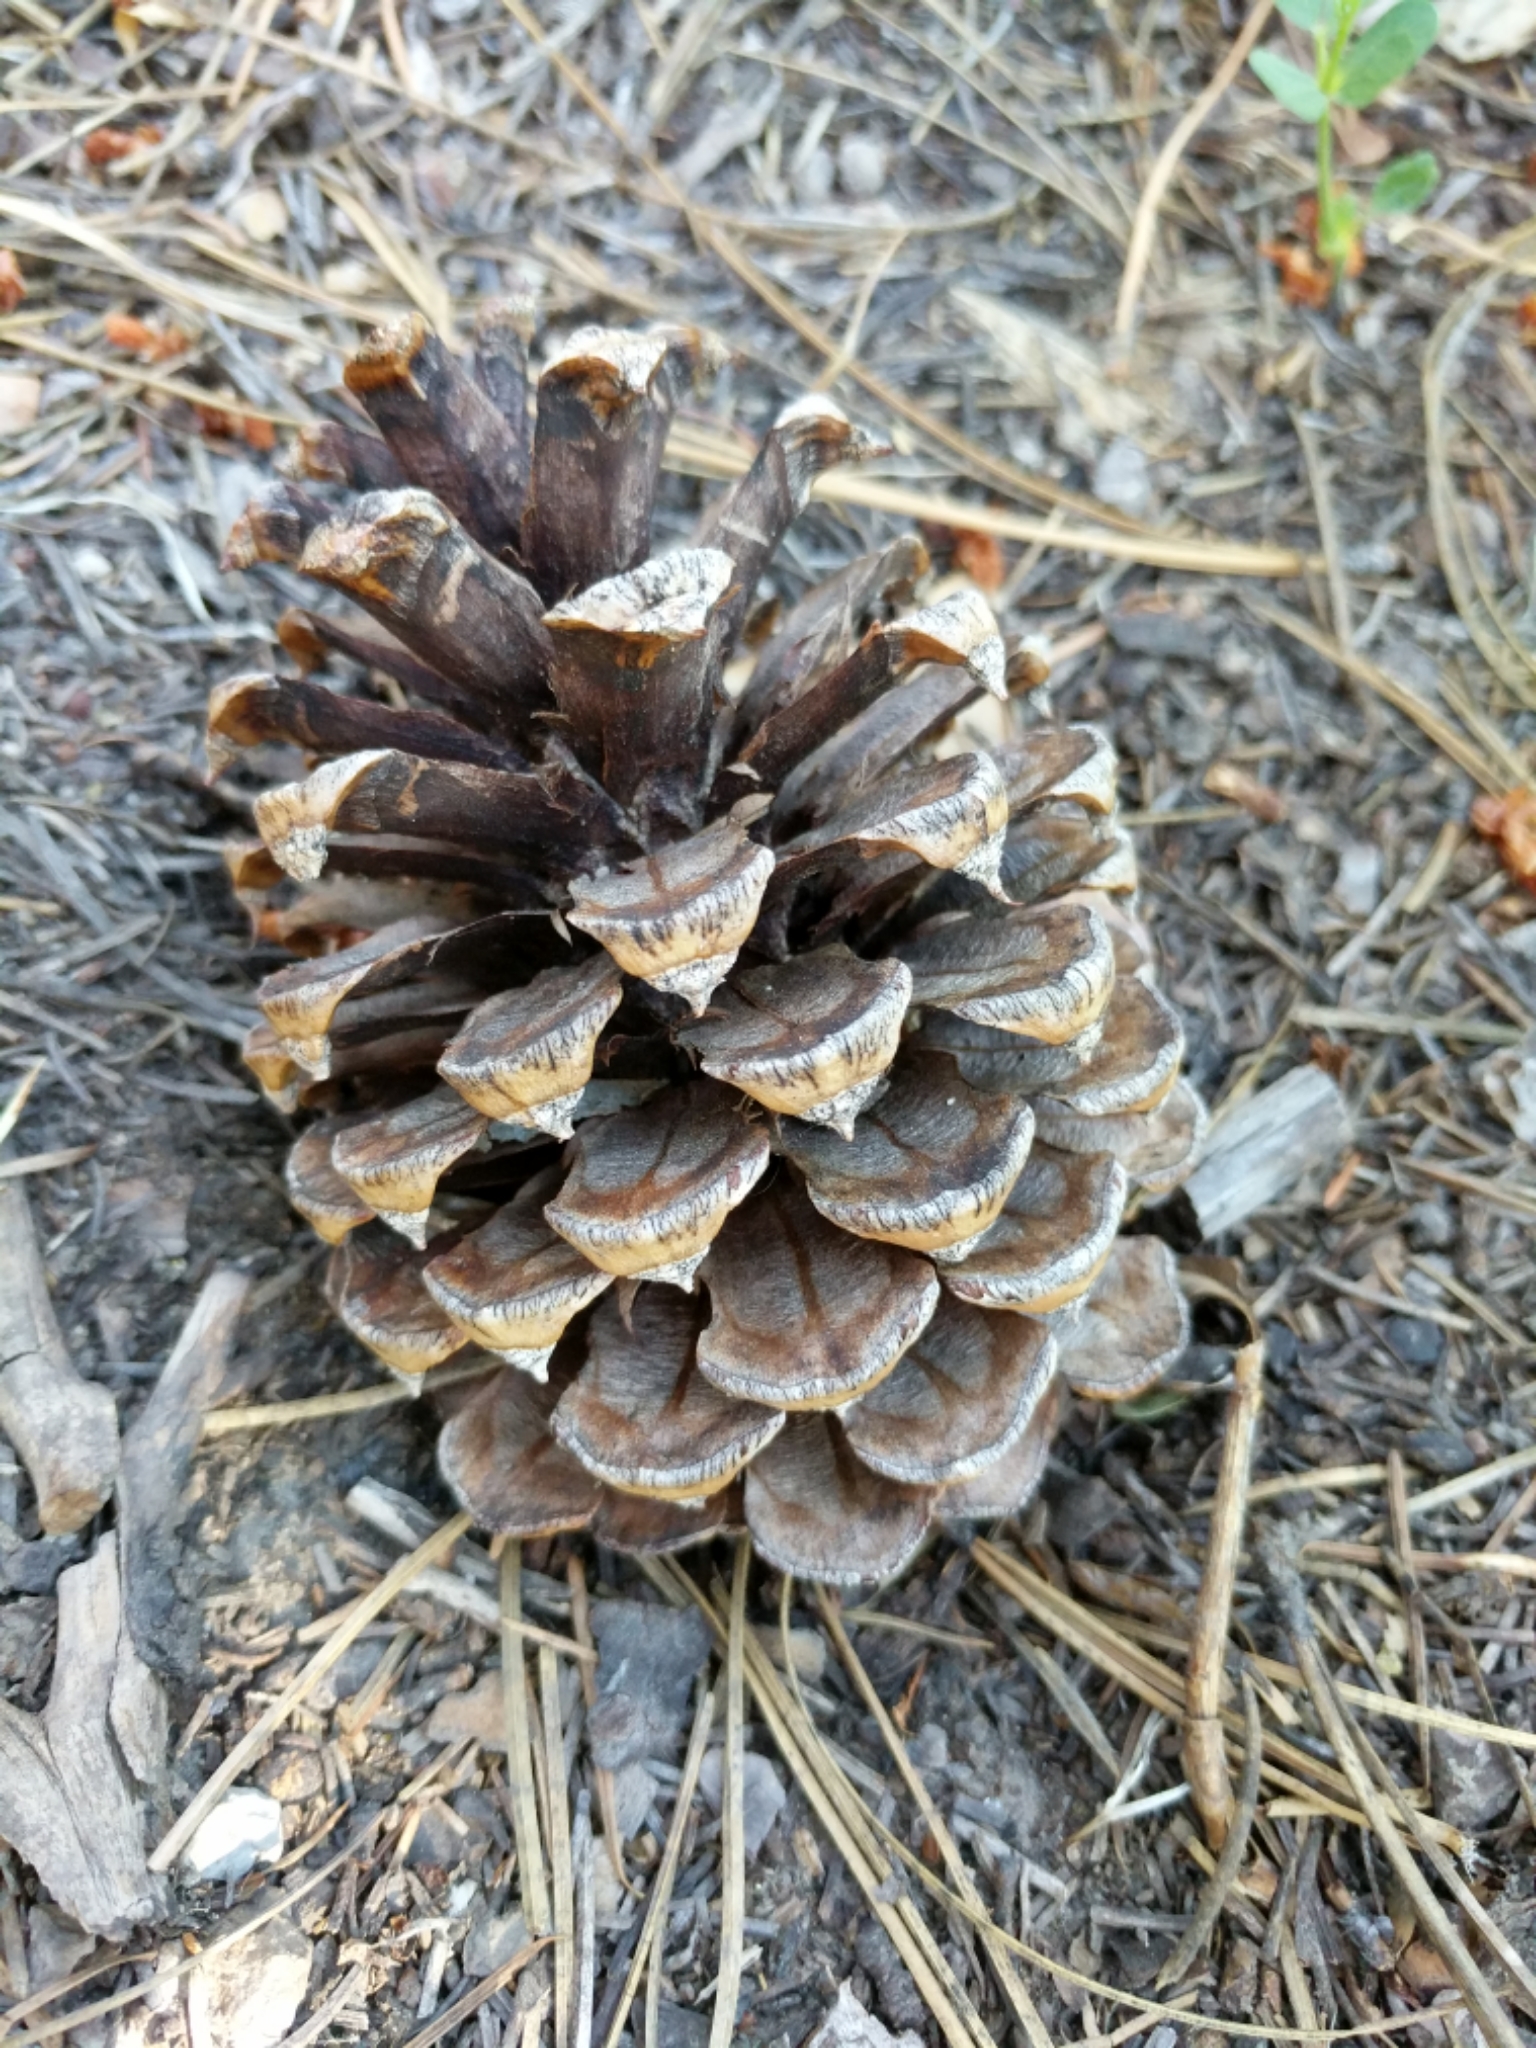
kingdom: Plantae
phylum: Tracheophyta
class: Pinopsida
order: Pinales
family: Pinaceae
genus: Pinus
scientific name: Pinus ponderosa
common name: Western yellow-pine
